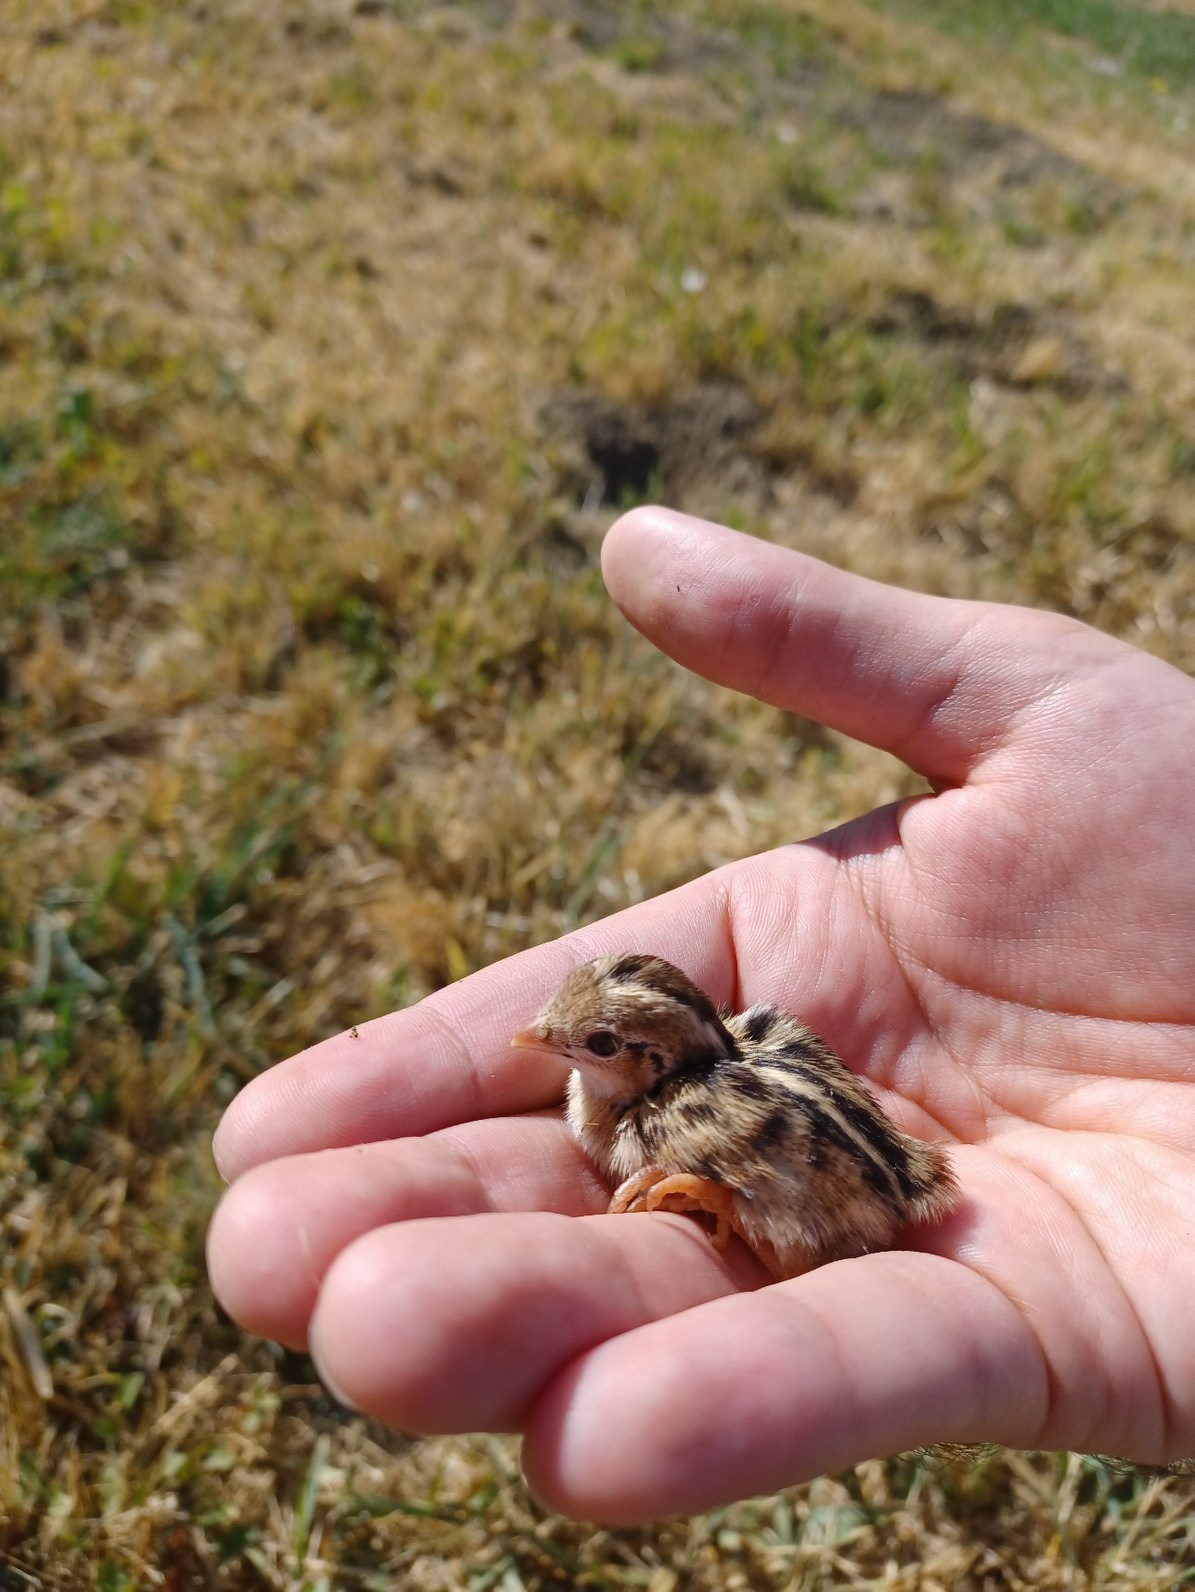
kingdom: Animalia
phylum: Chordata
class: Aves
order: Galliformes
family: Odontophoridae
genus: Callipepla
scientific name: Callipepla californica
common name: California quail
